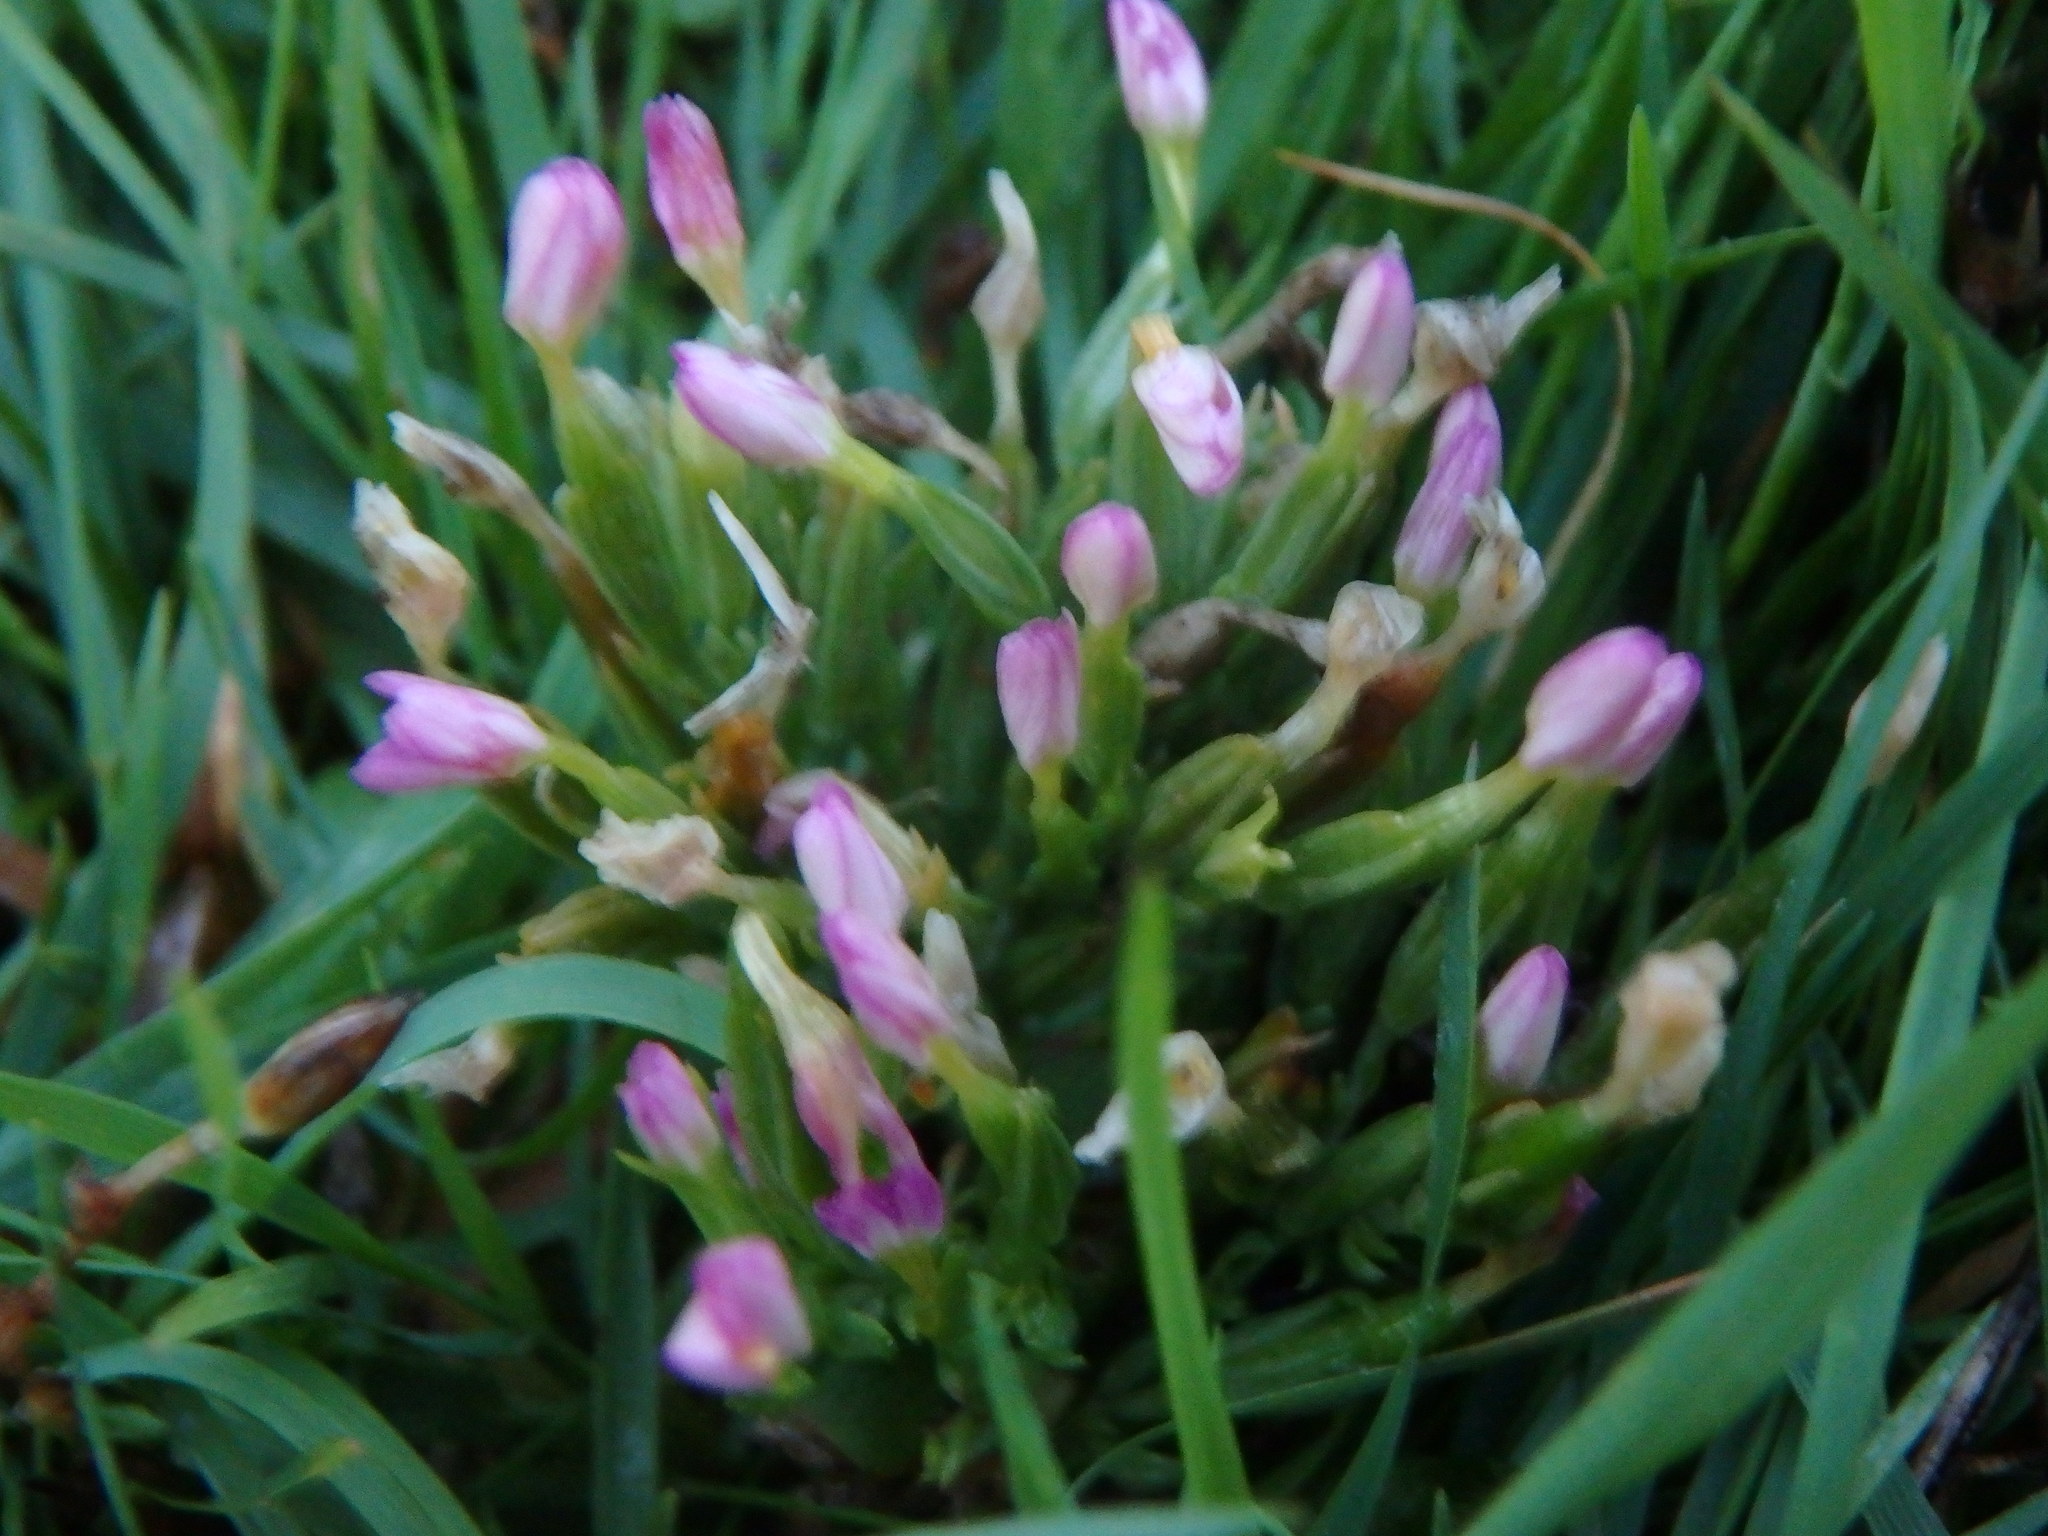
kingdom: Plantae
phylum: Tracheophyta
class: Magnoliopsida
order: Gentianales
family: Gentianaceae
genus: Centaurium
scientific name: Centaurium pulchellum
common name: Lesser centaury
